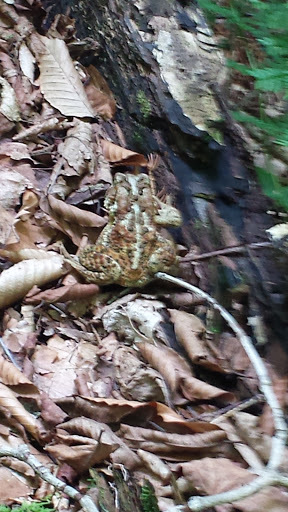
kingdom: Animalia
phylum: Chordata
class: Amphibia
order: Anura
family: Bufonidae
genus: Anaxyrus
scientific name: Anaxyrus americanus
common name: American toad
